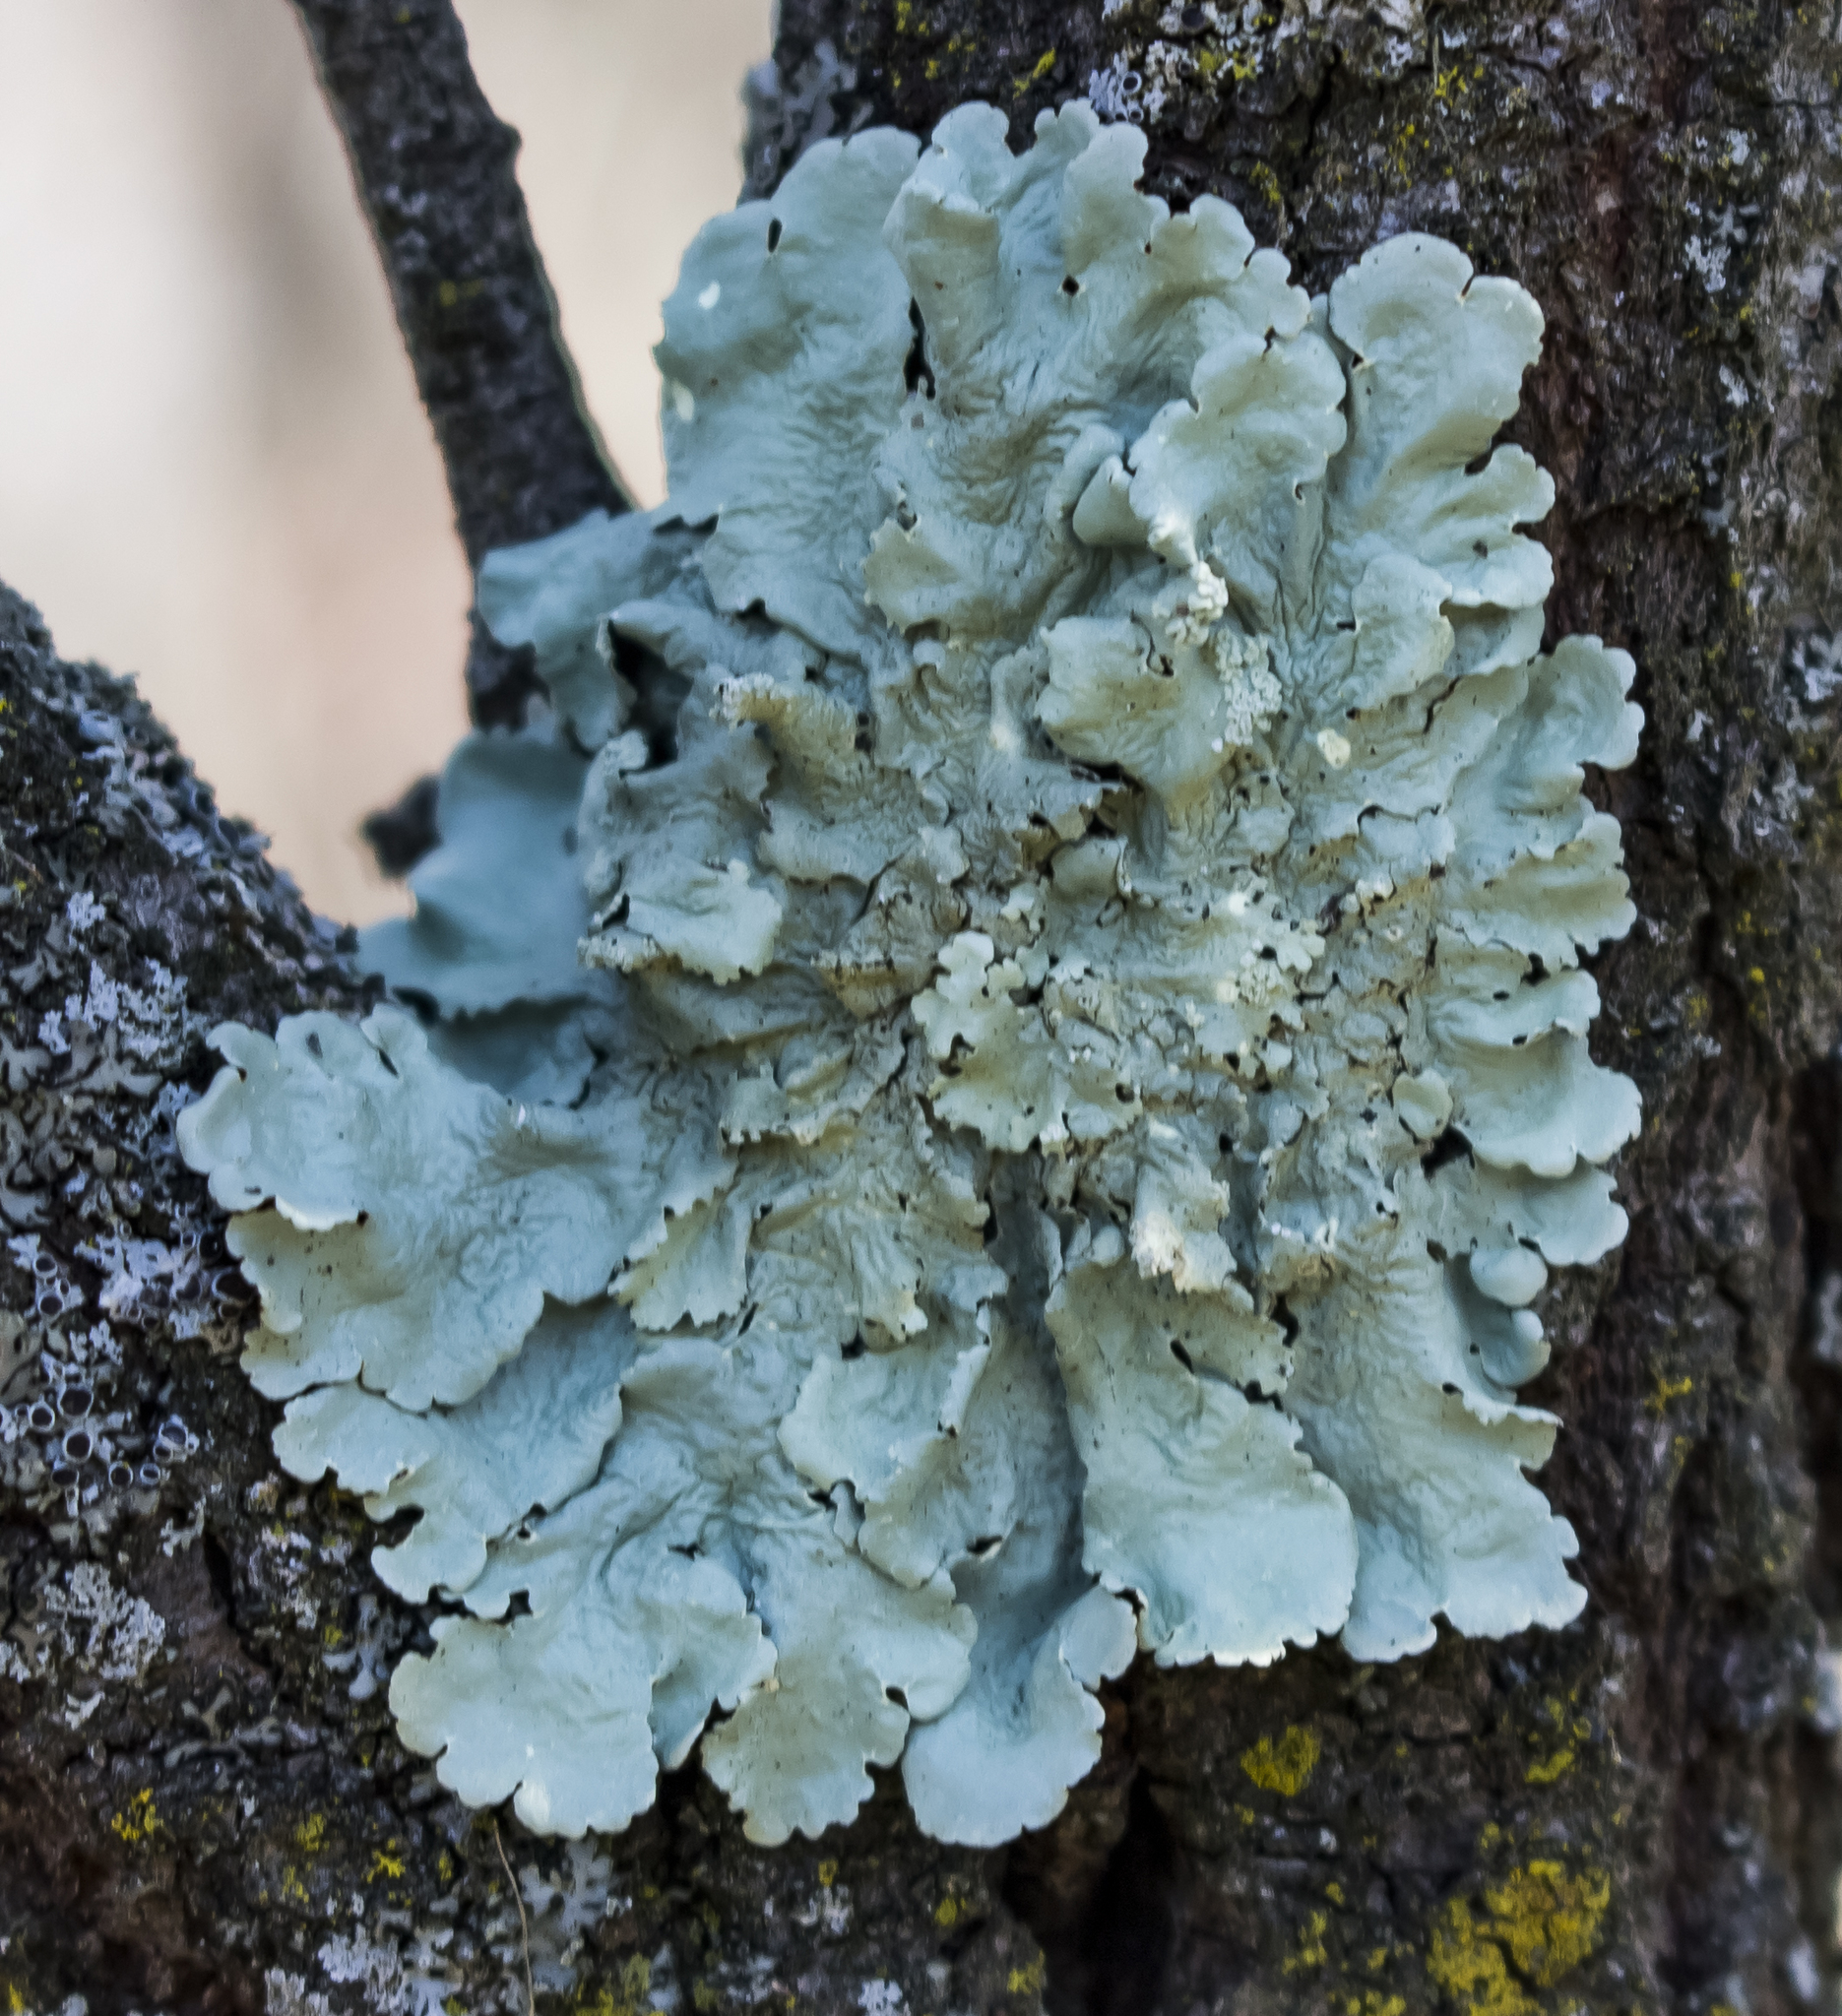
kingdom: Fungi
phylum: Ascomycota
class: Lecanoromycetes
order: Lecanorales
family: Parmeliaceae
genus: Flavoparmelia
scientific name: Flavoparmelia caperata
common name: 40-mile per hour lichen
